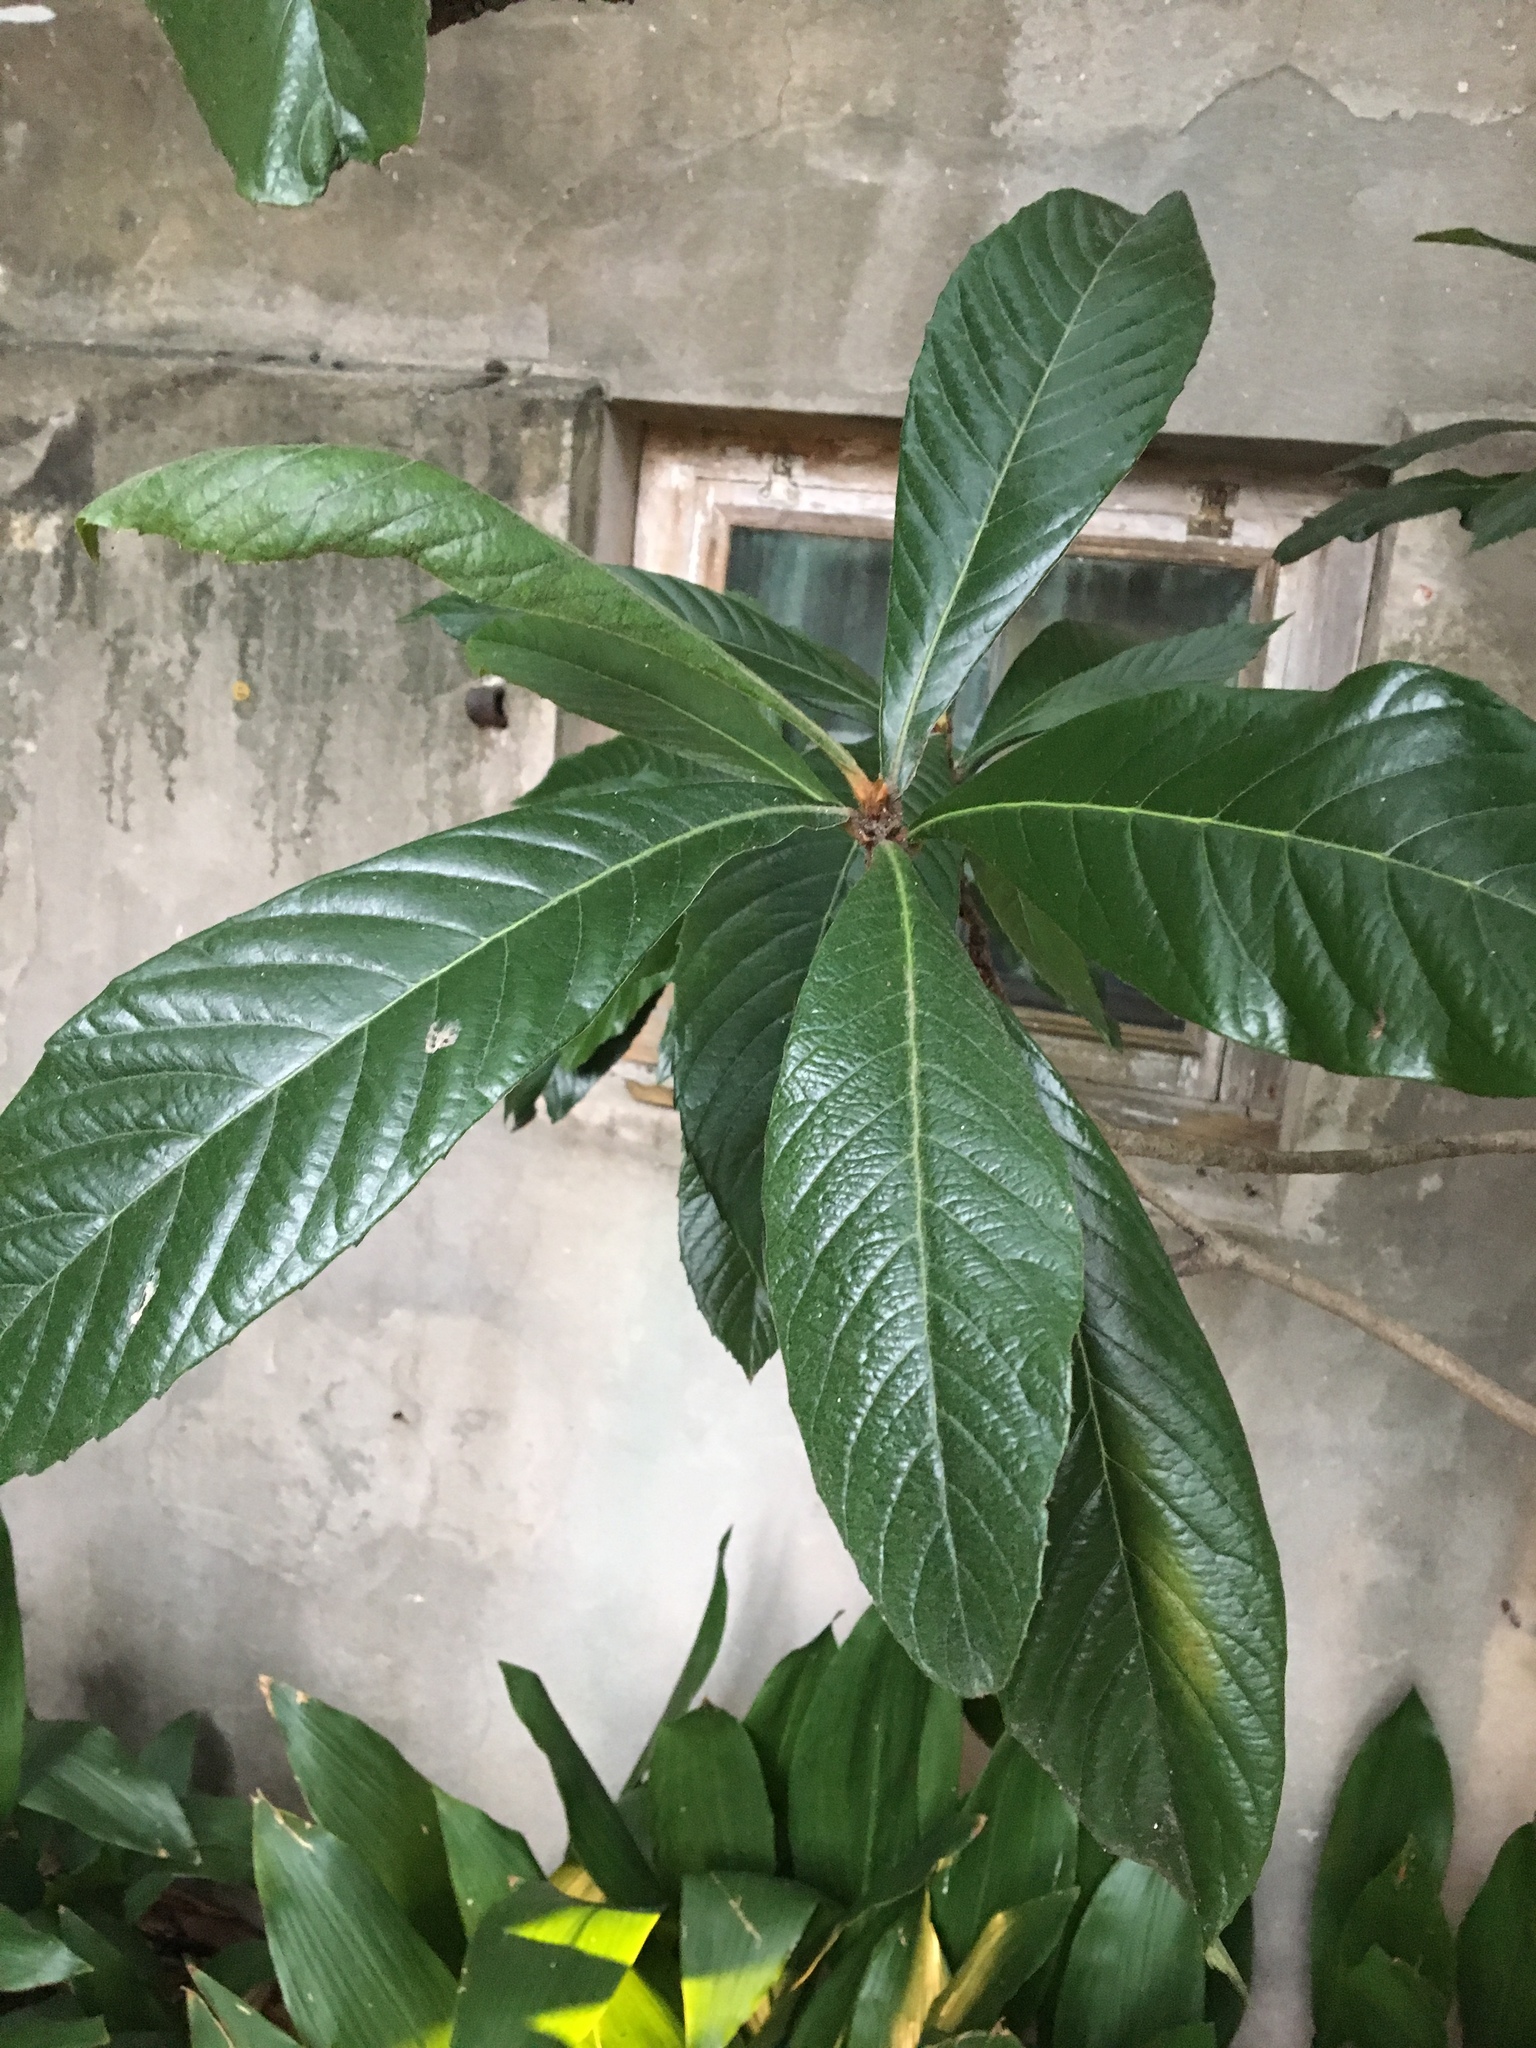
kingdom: Plantae
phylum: Tracheophyta
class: Magnoliopsida
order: Rosales
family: Rosaceae
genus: Rhaphiolepis
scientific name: Rhaphiolepis bibas
